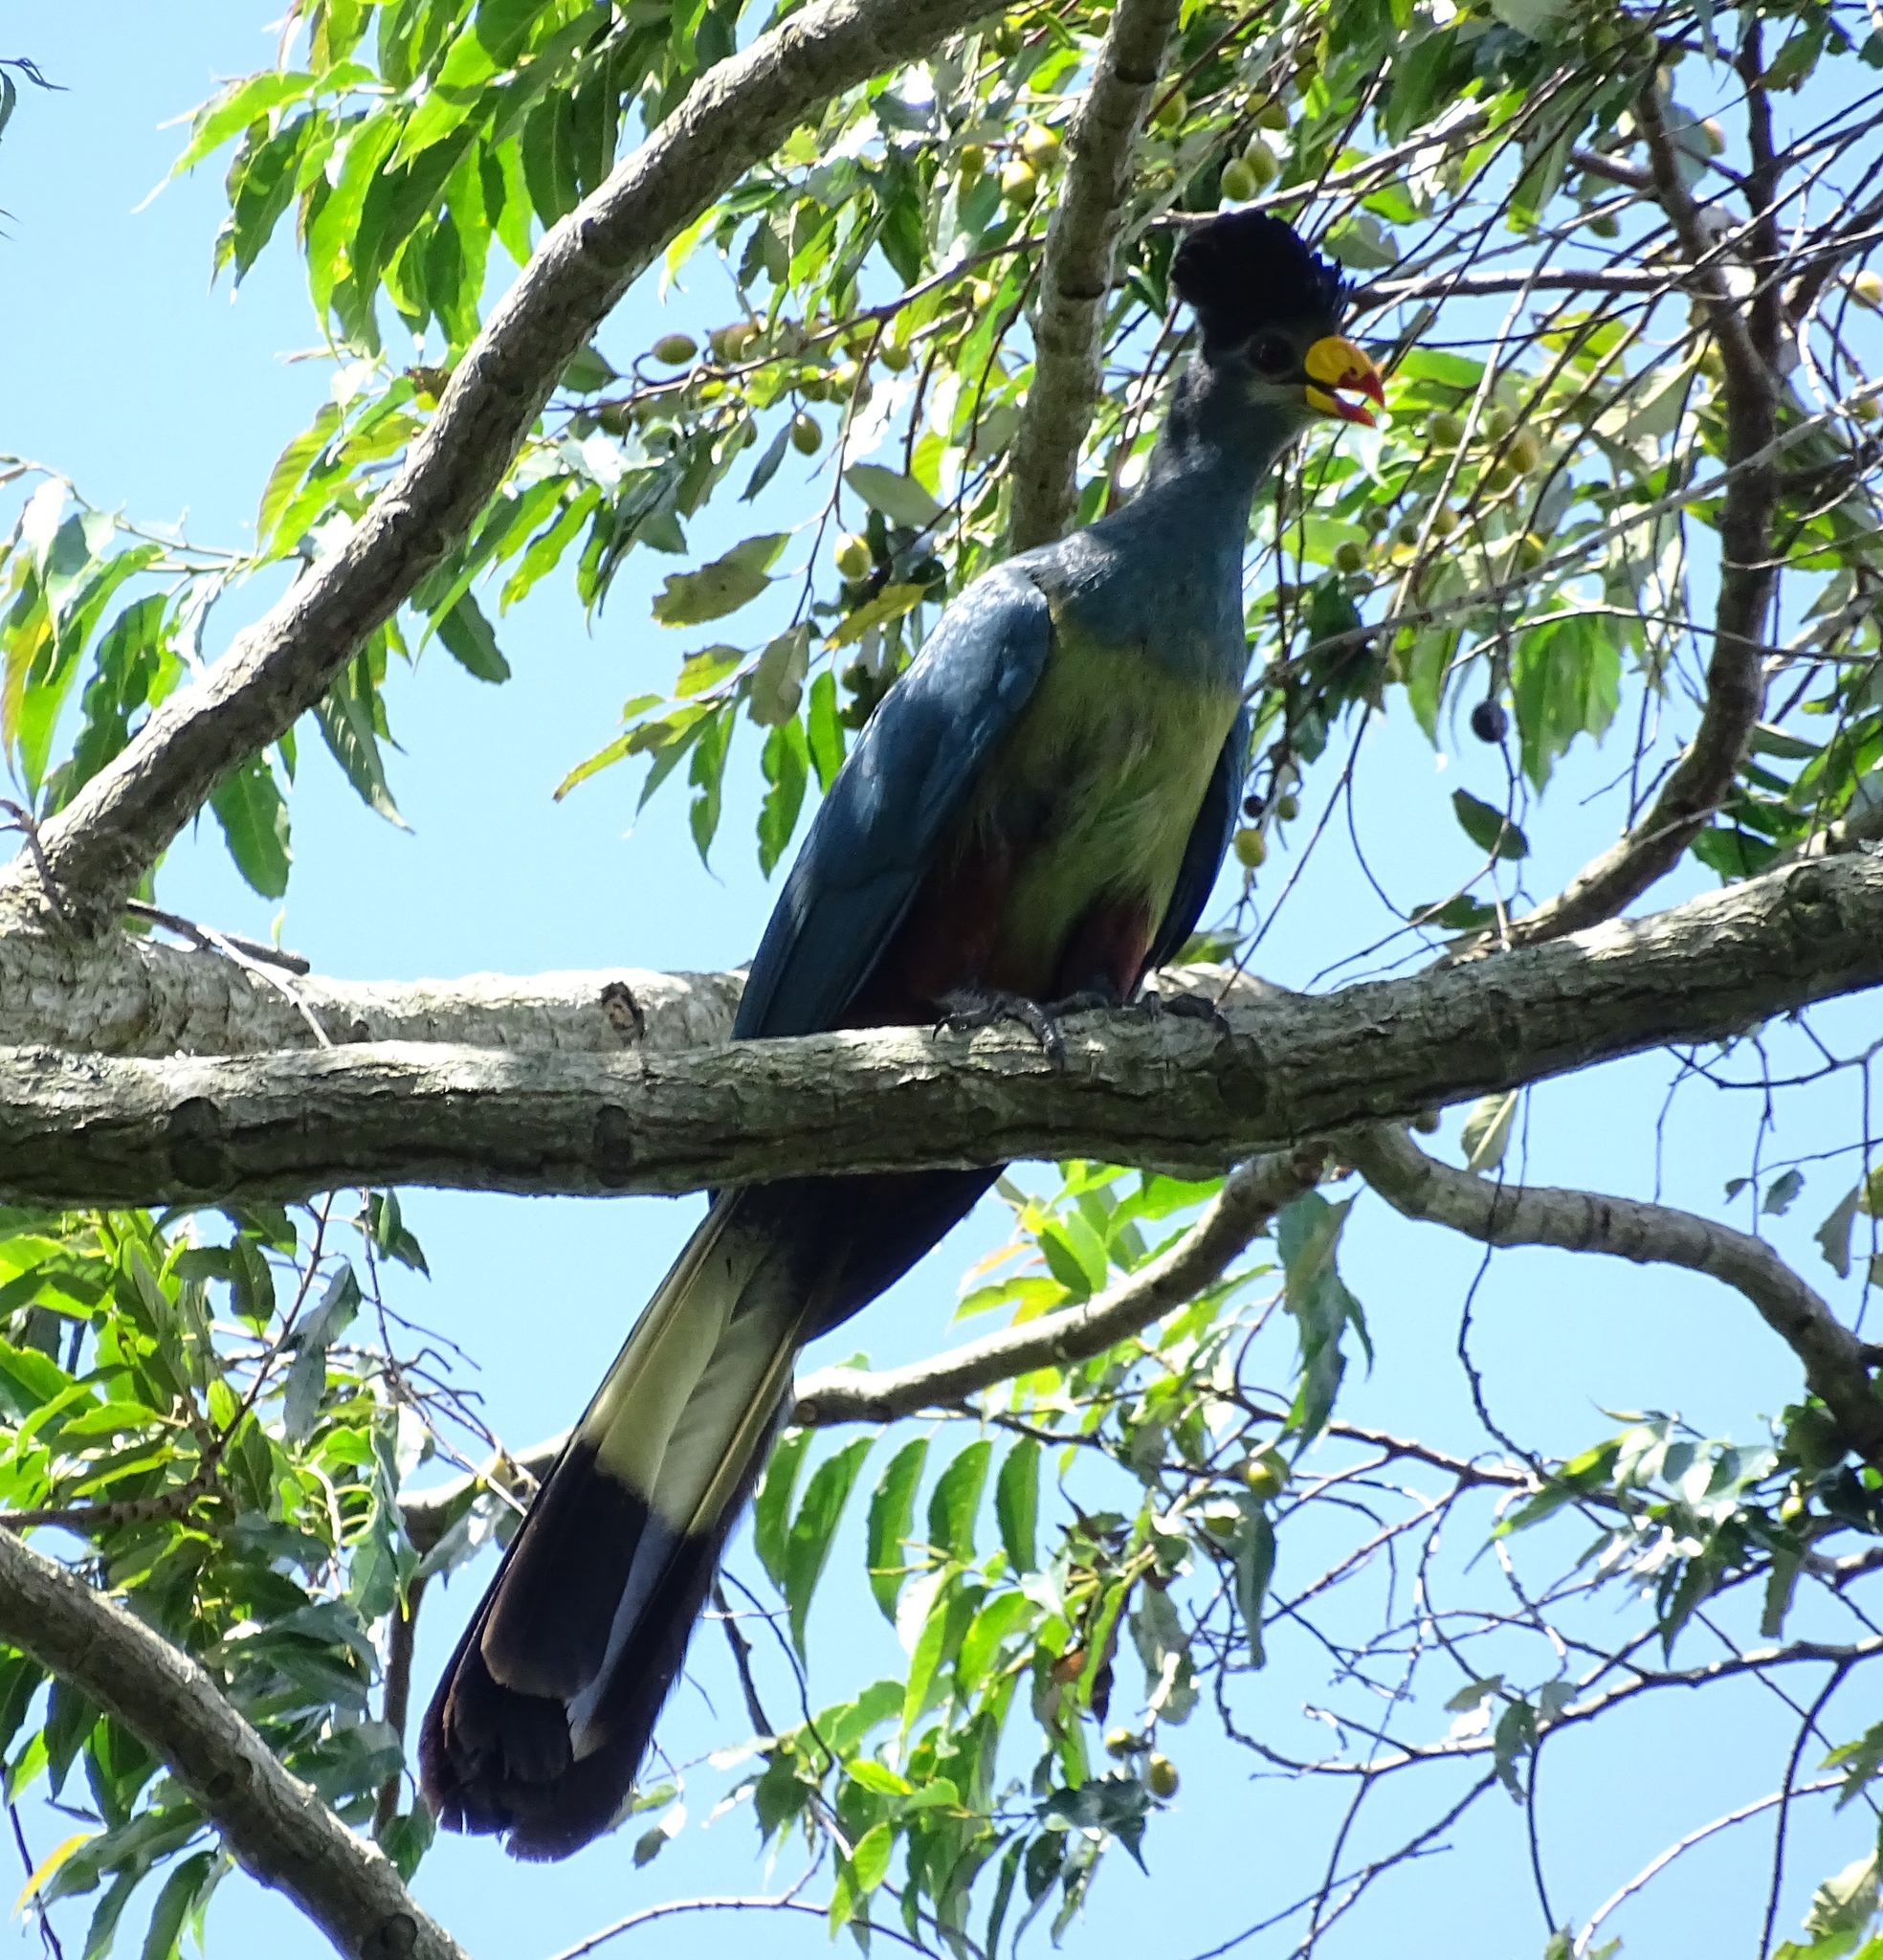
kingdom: Animalia
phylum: Chordata
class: Aves
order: Musophagiformes
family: Musophagidae
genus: Corythaeola
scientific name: Corythaeola cristata
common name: Great blue turaco
